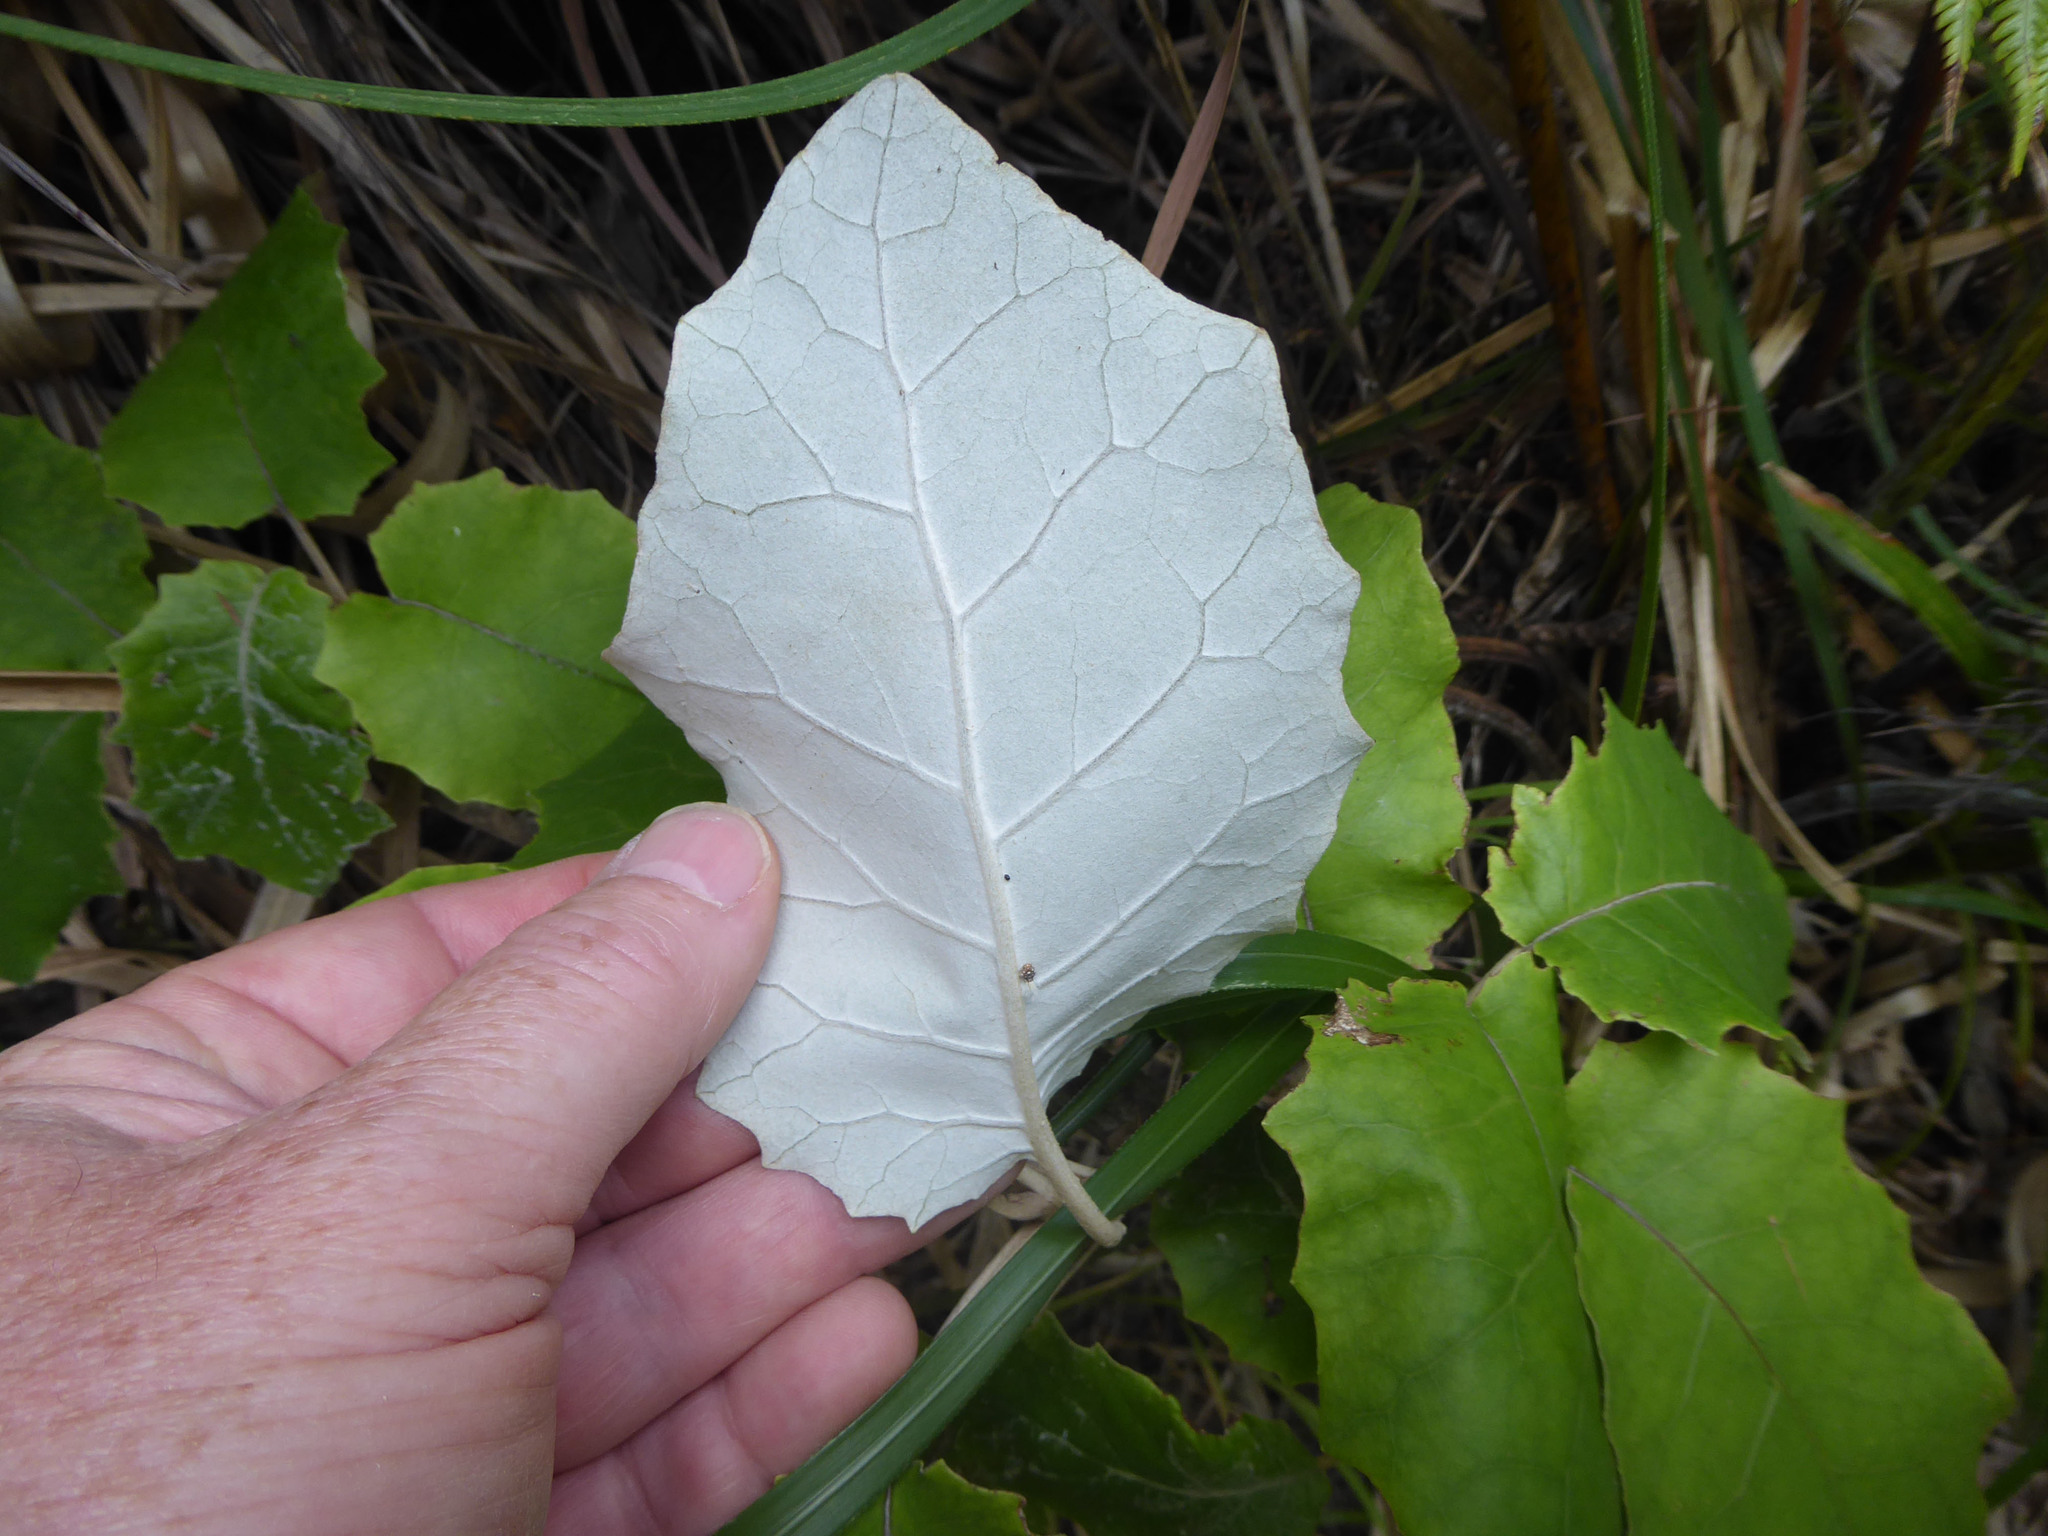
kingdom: Plantae
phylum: Tracheophyta
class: Magnoliopsida
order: Asterales
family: Asteraceae
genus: Brachyglottis
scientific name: Brachyglottis repanda
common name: Hedge ragwort
